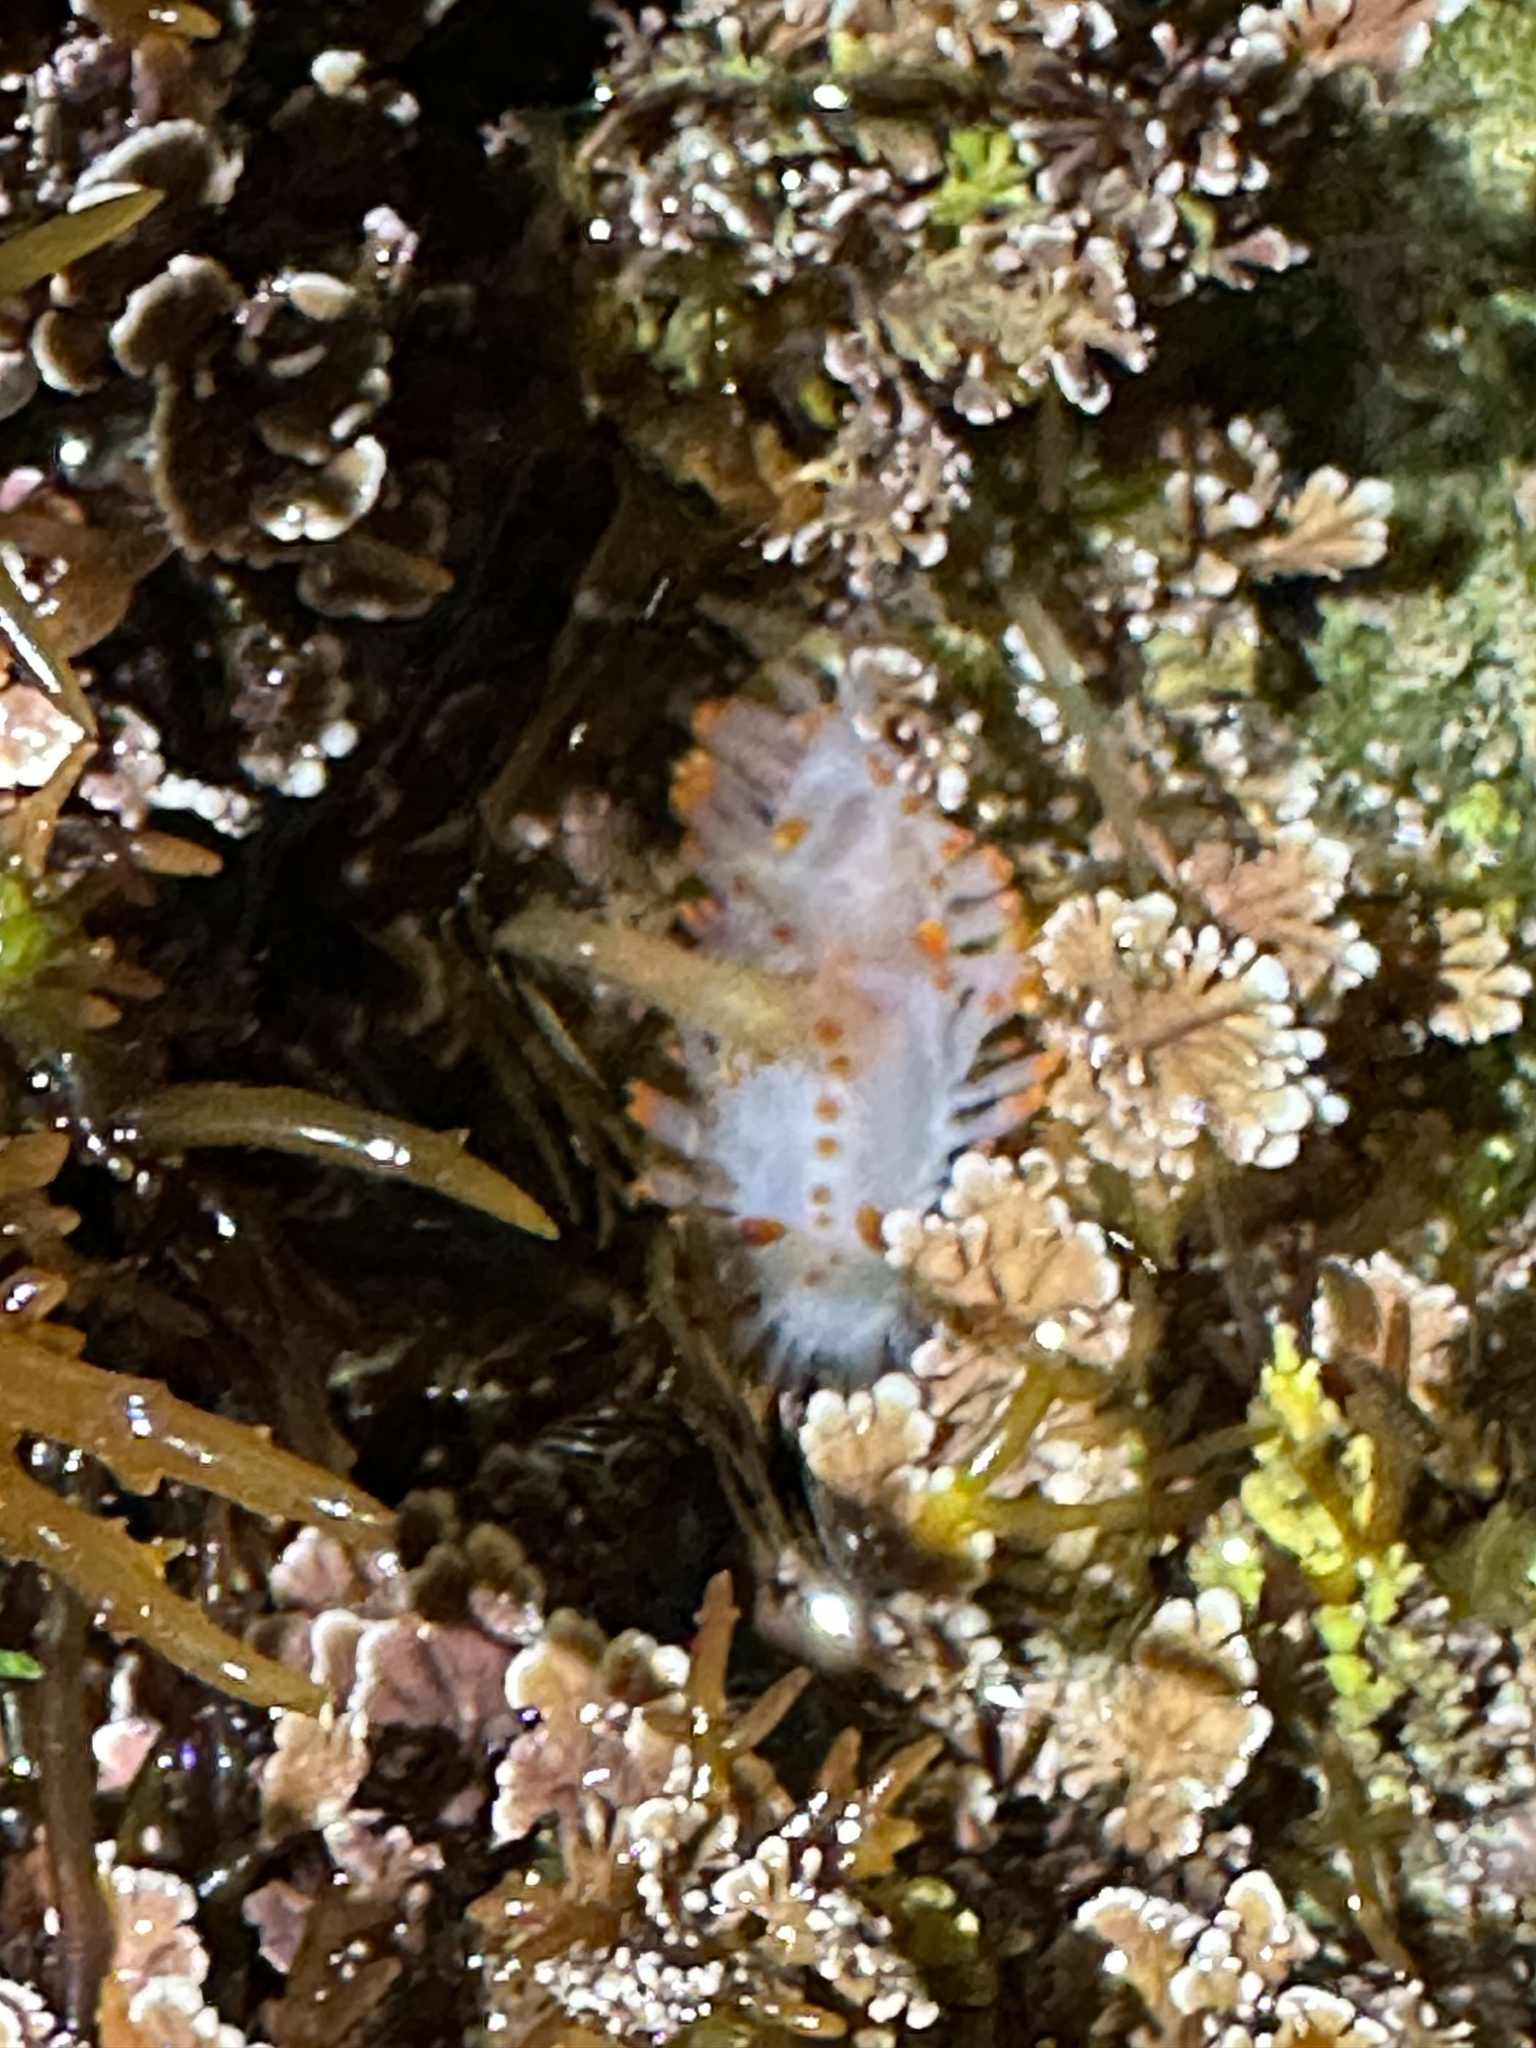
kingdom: Animalia
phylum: Mollusca
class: Gastropoda
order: Nudibranchia
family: Polyceridae
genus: Limacia
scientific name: Limacia mcdonaldi
